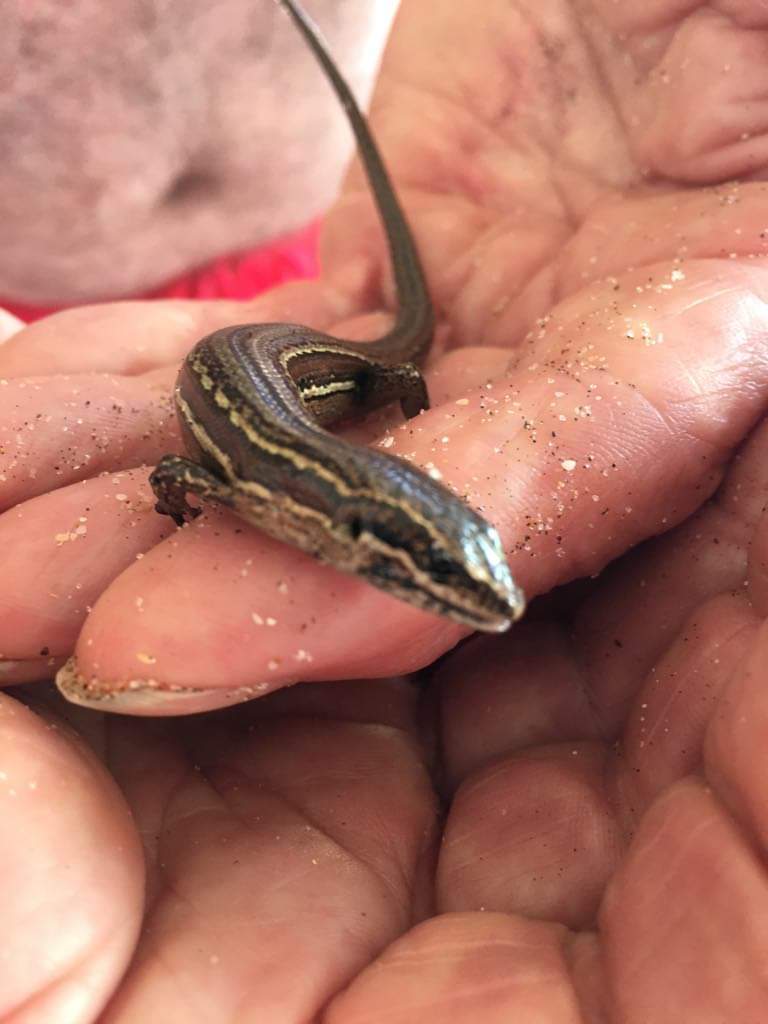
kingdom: Animalia
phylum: Chordata
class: Squamata
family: Scincidae
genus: Oligosoma
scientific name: Oligosoma moco
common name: Moco skink
